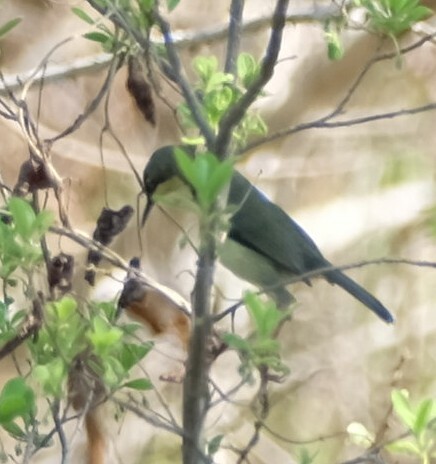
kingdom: Animalia
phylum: Chordata
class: Aves
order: Passeriformes
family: Cisticolidae
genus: Apalis
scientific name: Apalis thoracica
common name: Bar-throated apalis
